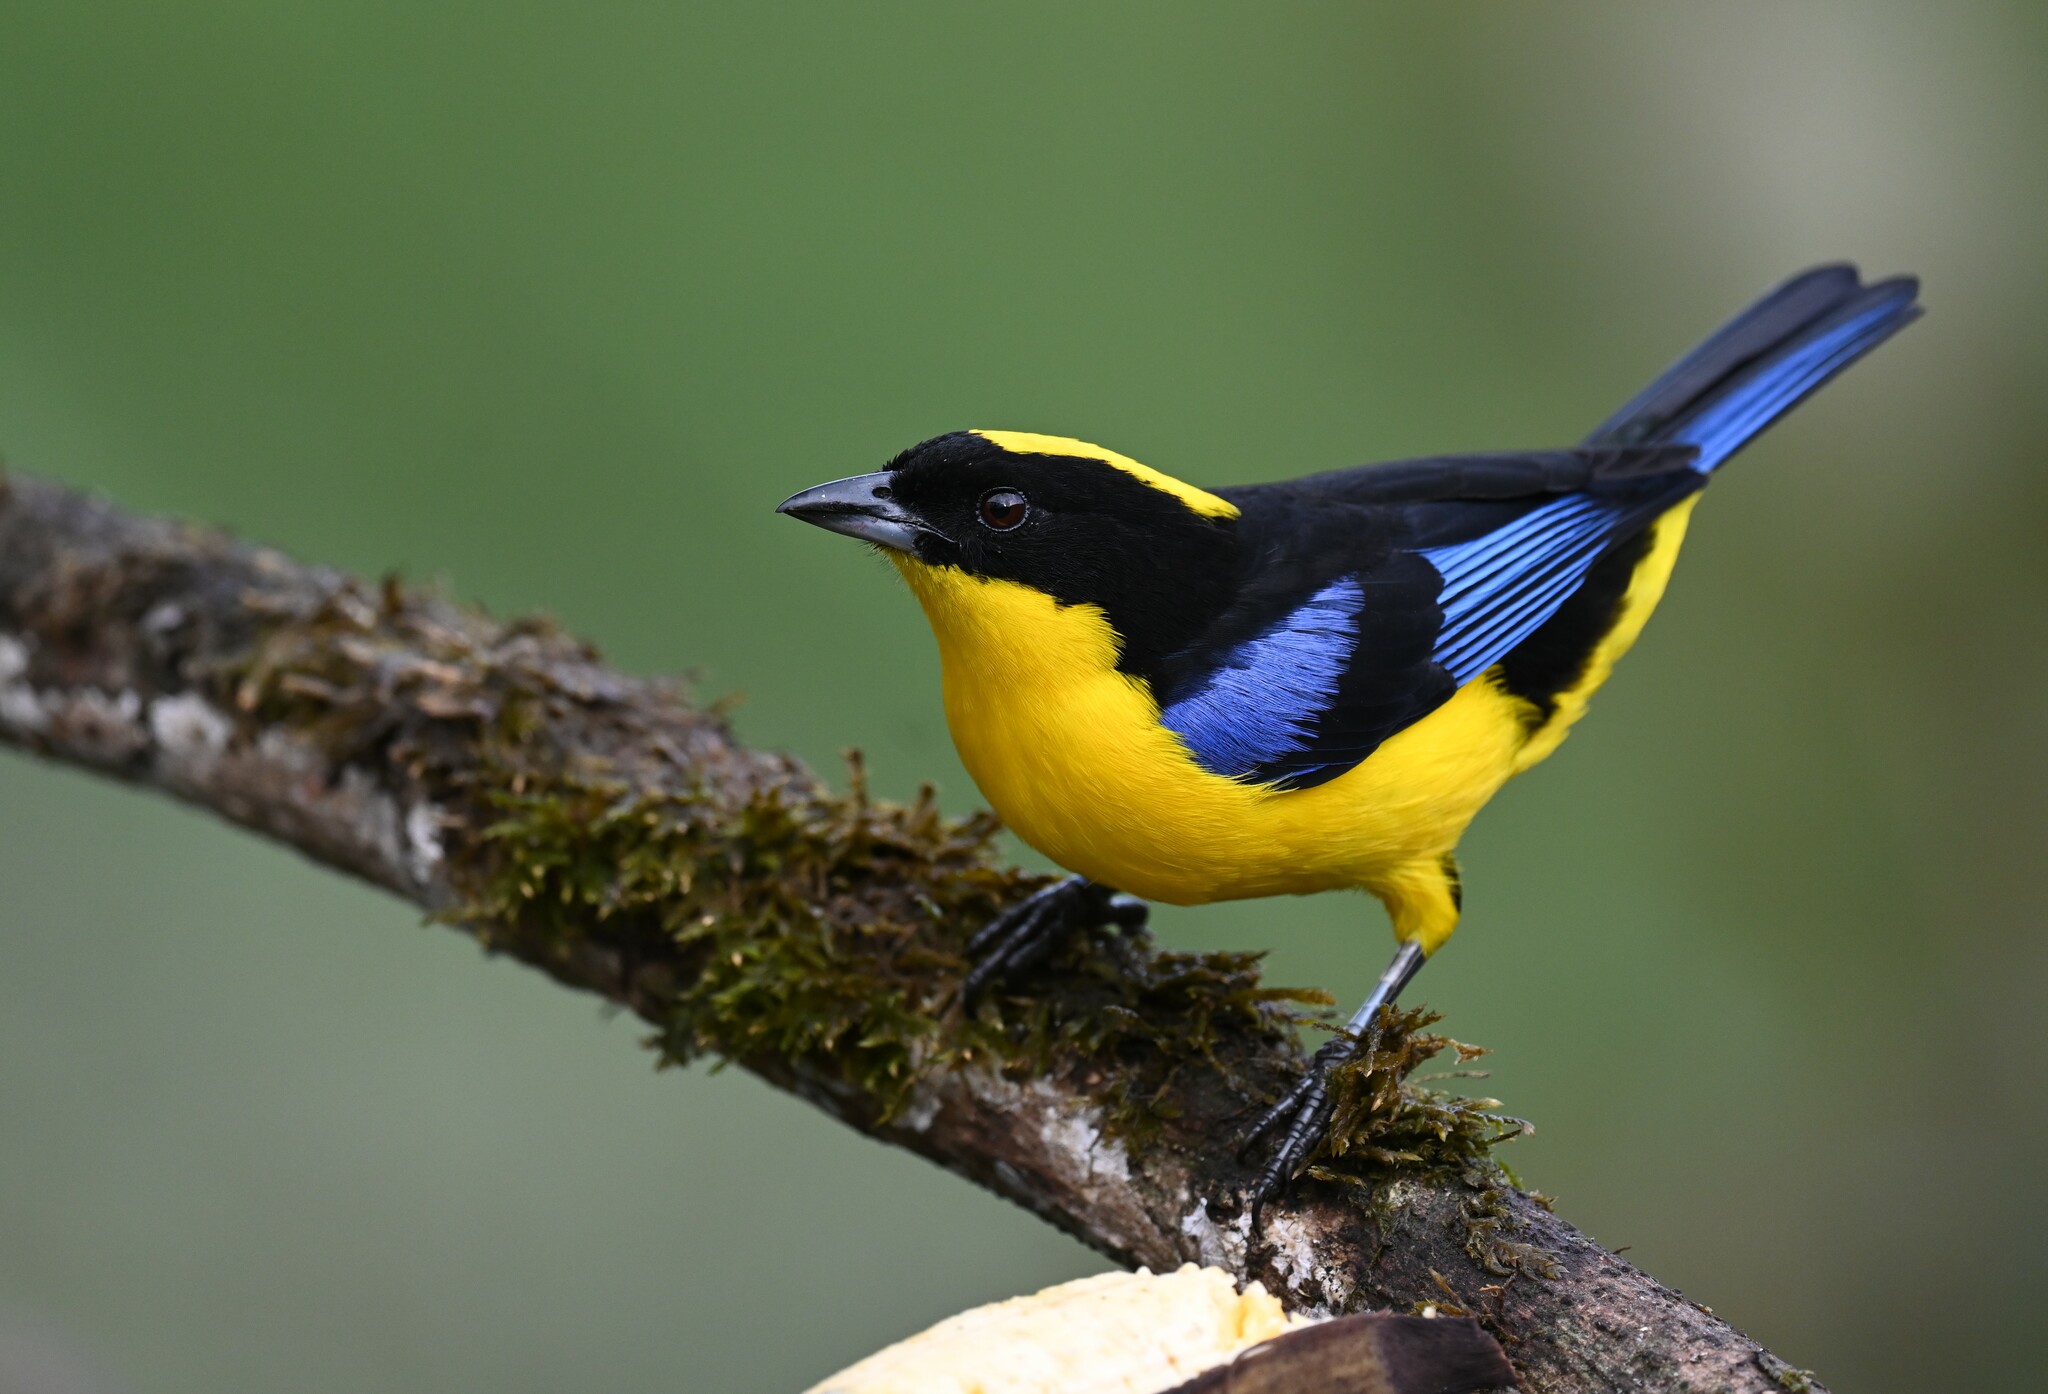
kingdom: Animalia
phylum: Chordata
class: Aves
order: Passeriformes
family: Thraupidae
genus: Anisognathus
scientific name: Anisognathus somptuosus
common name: Blue-winged mountain-tanager
